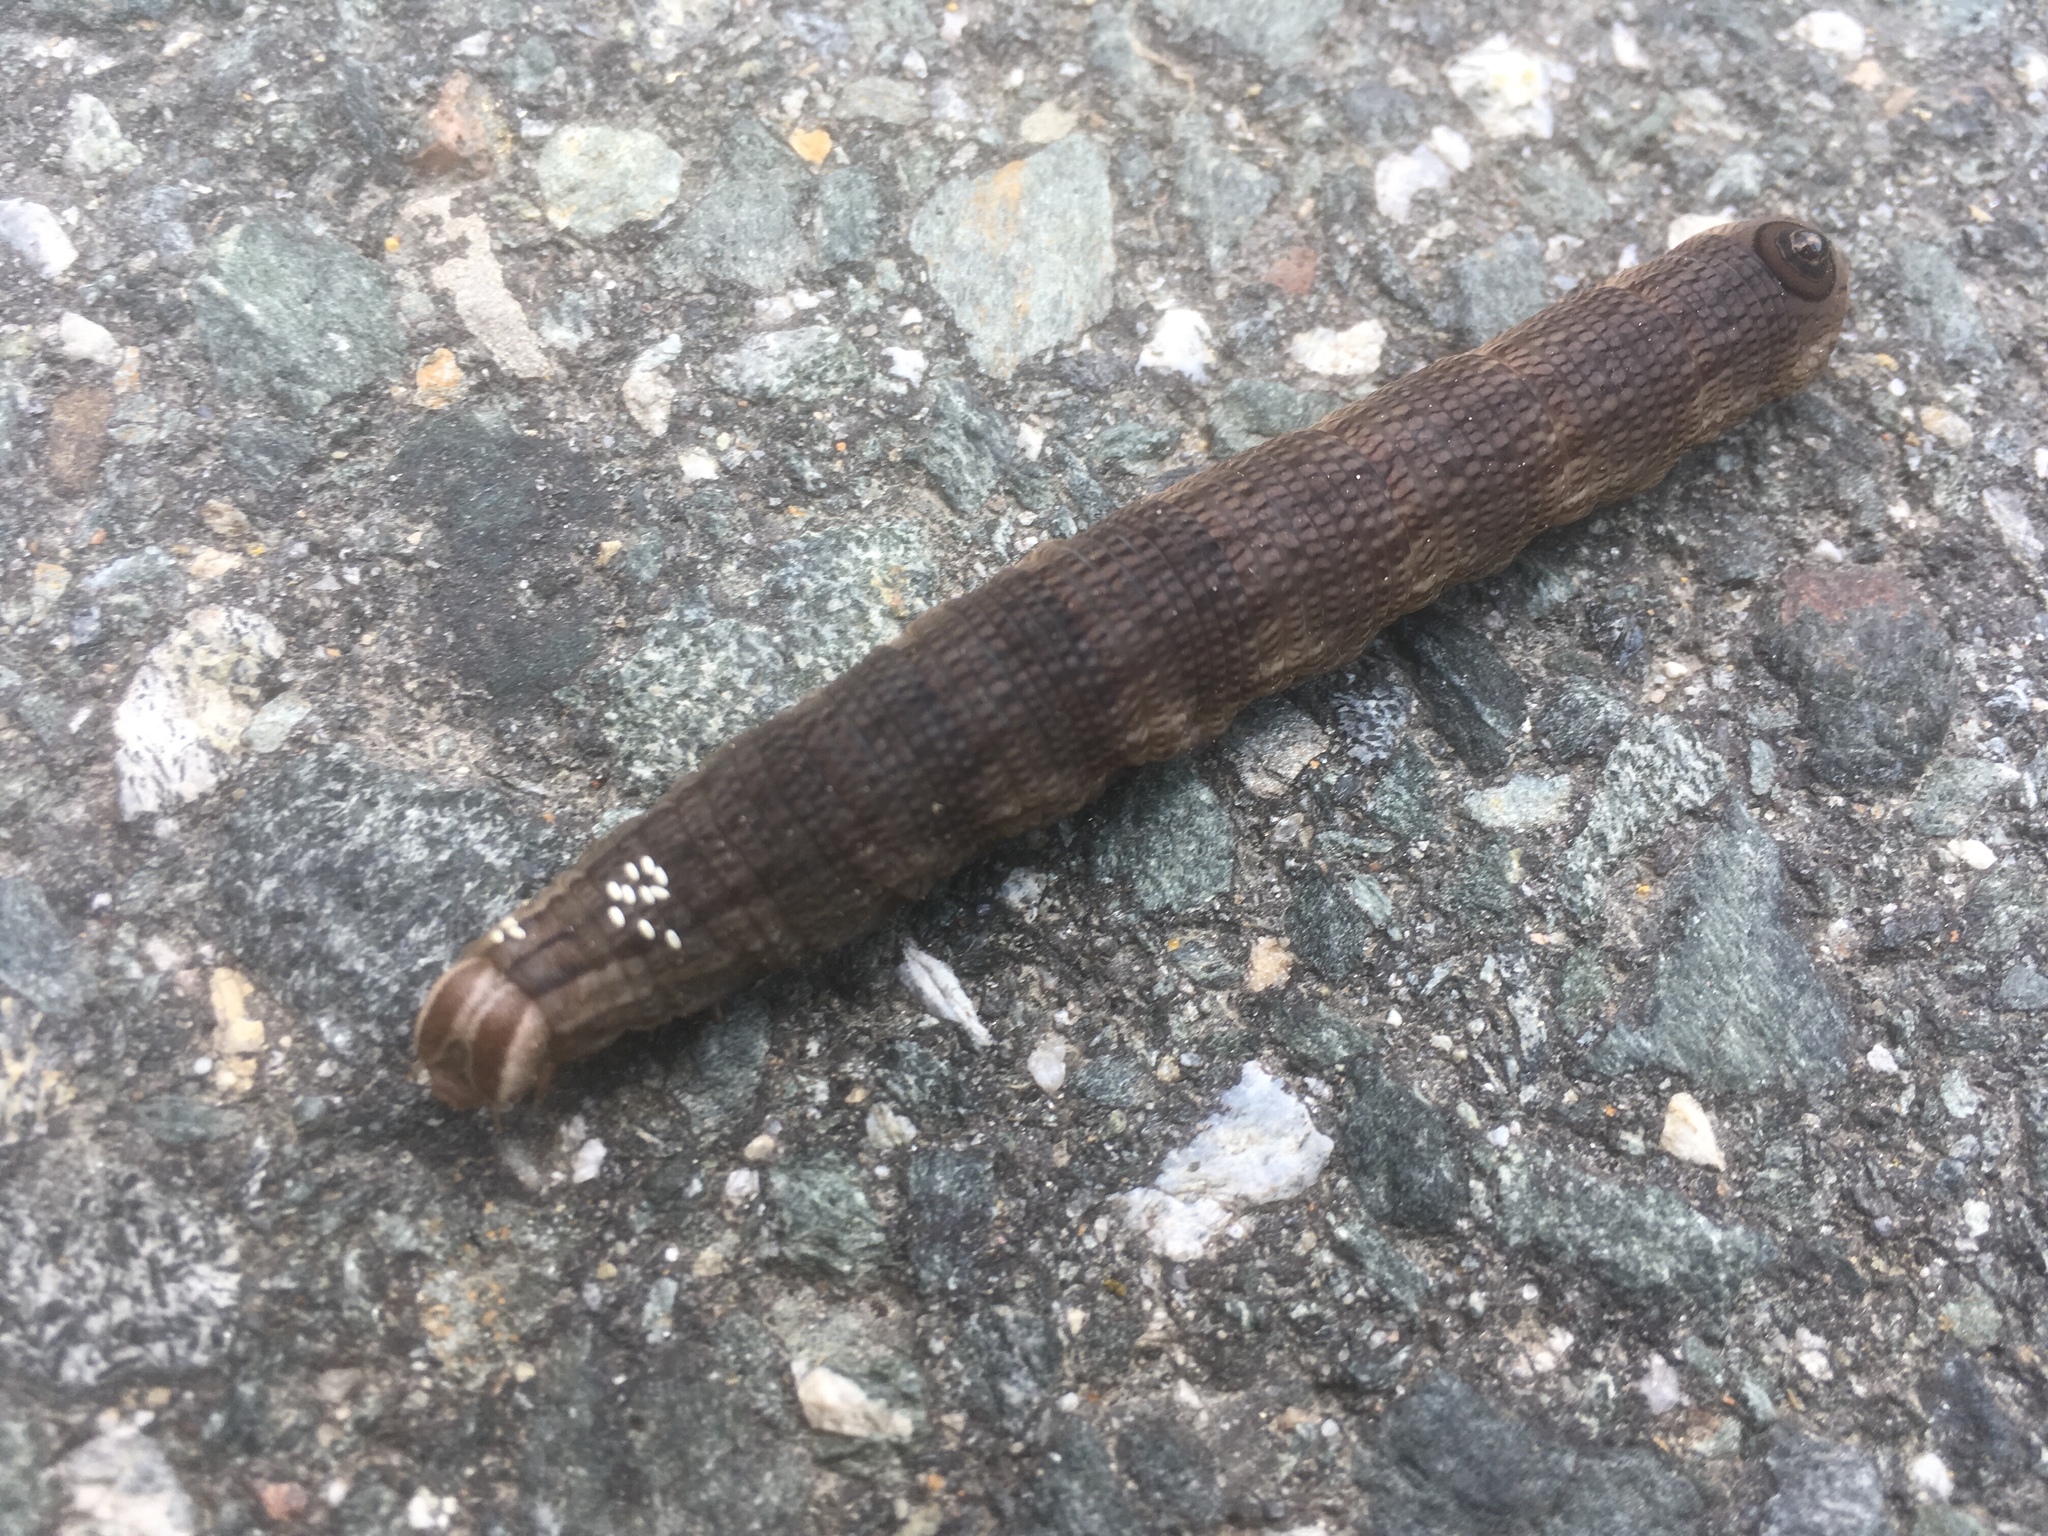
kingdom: Animalia
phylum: Arthropoda
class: Insecta
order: Lepidoptera
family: Sphingidae
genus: Sphecodina
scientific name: Sphecodina abbottii
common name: Abbott's sphinx
